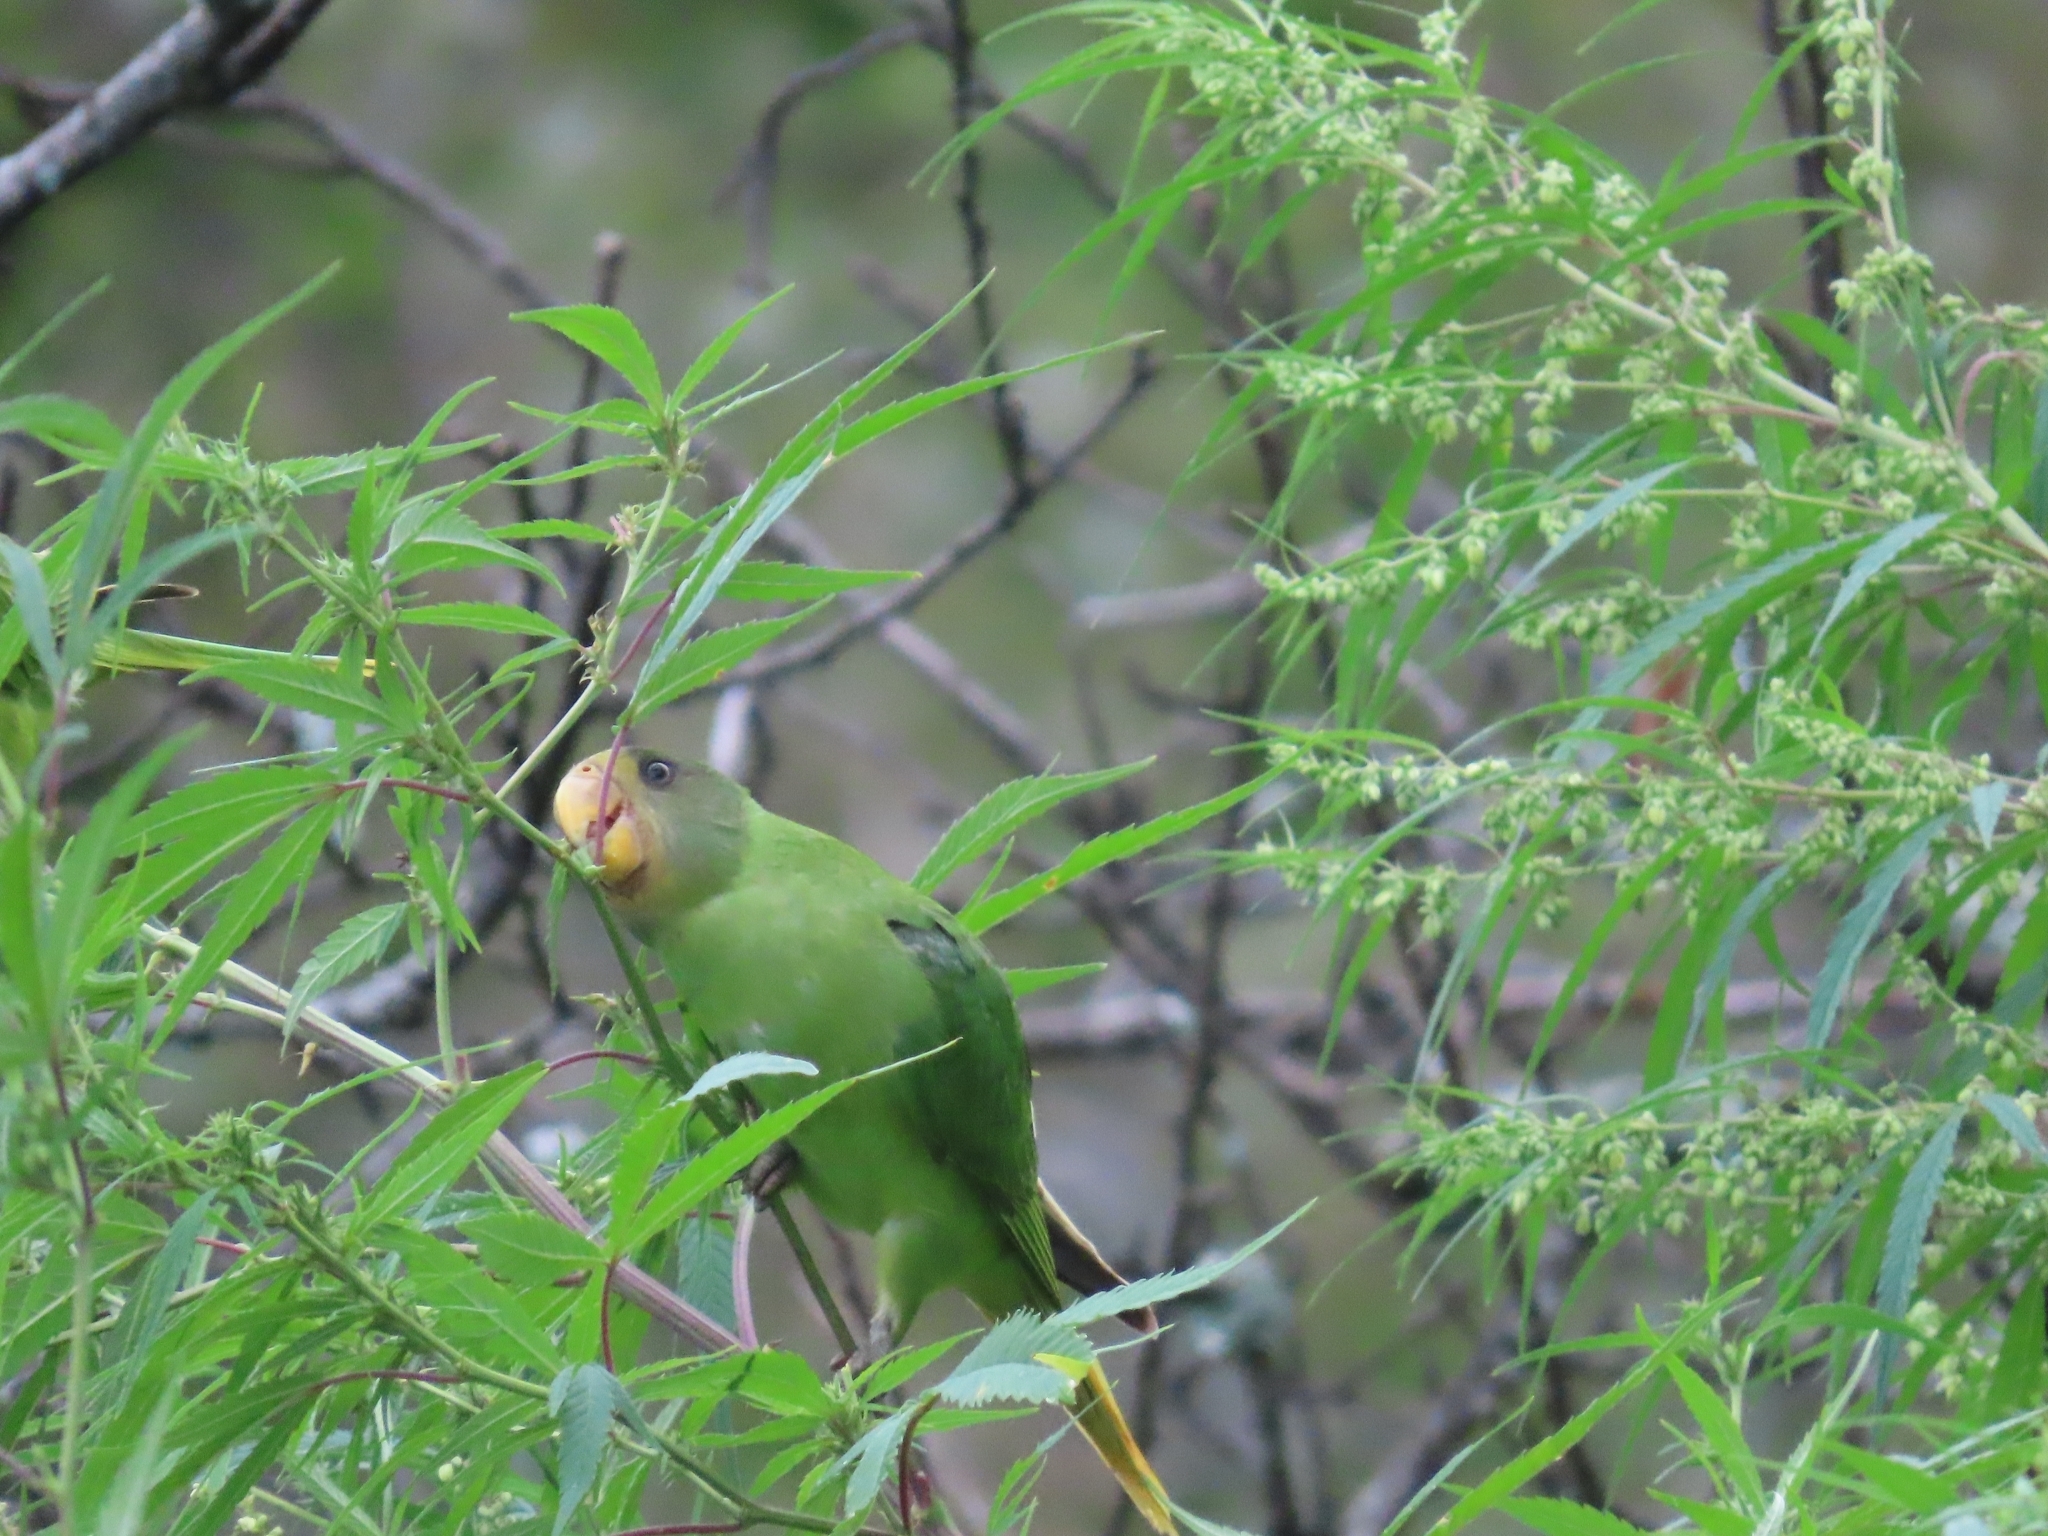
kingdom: Animalia
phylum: Chordata
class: Aves
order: Psittaciformes
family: Psittacidae
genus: Psittacula
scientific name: Psittacula himalayana
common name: Slaty-headed parakeet
